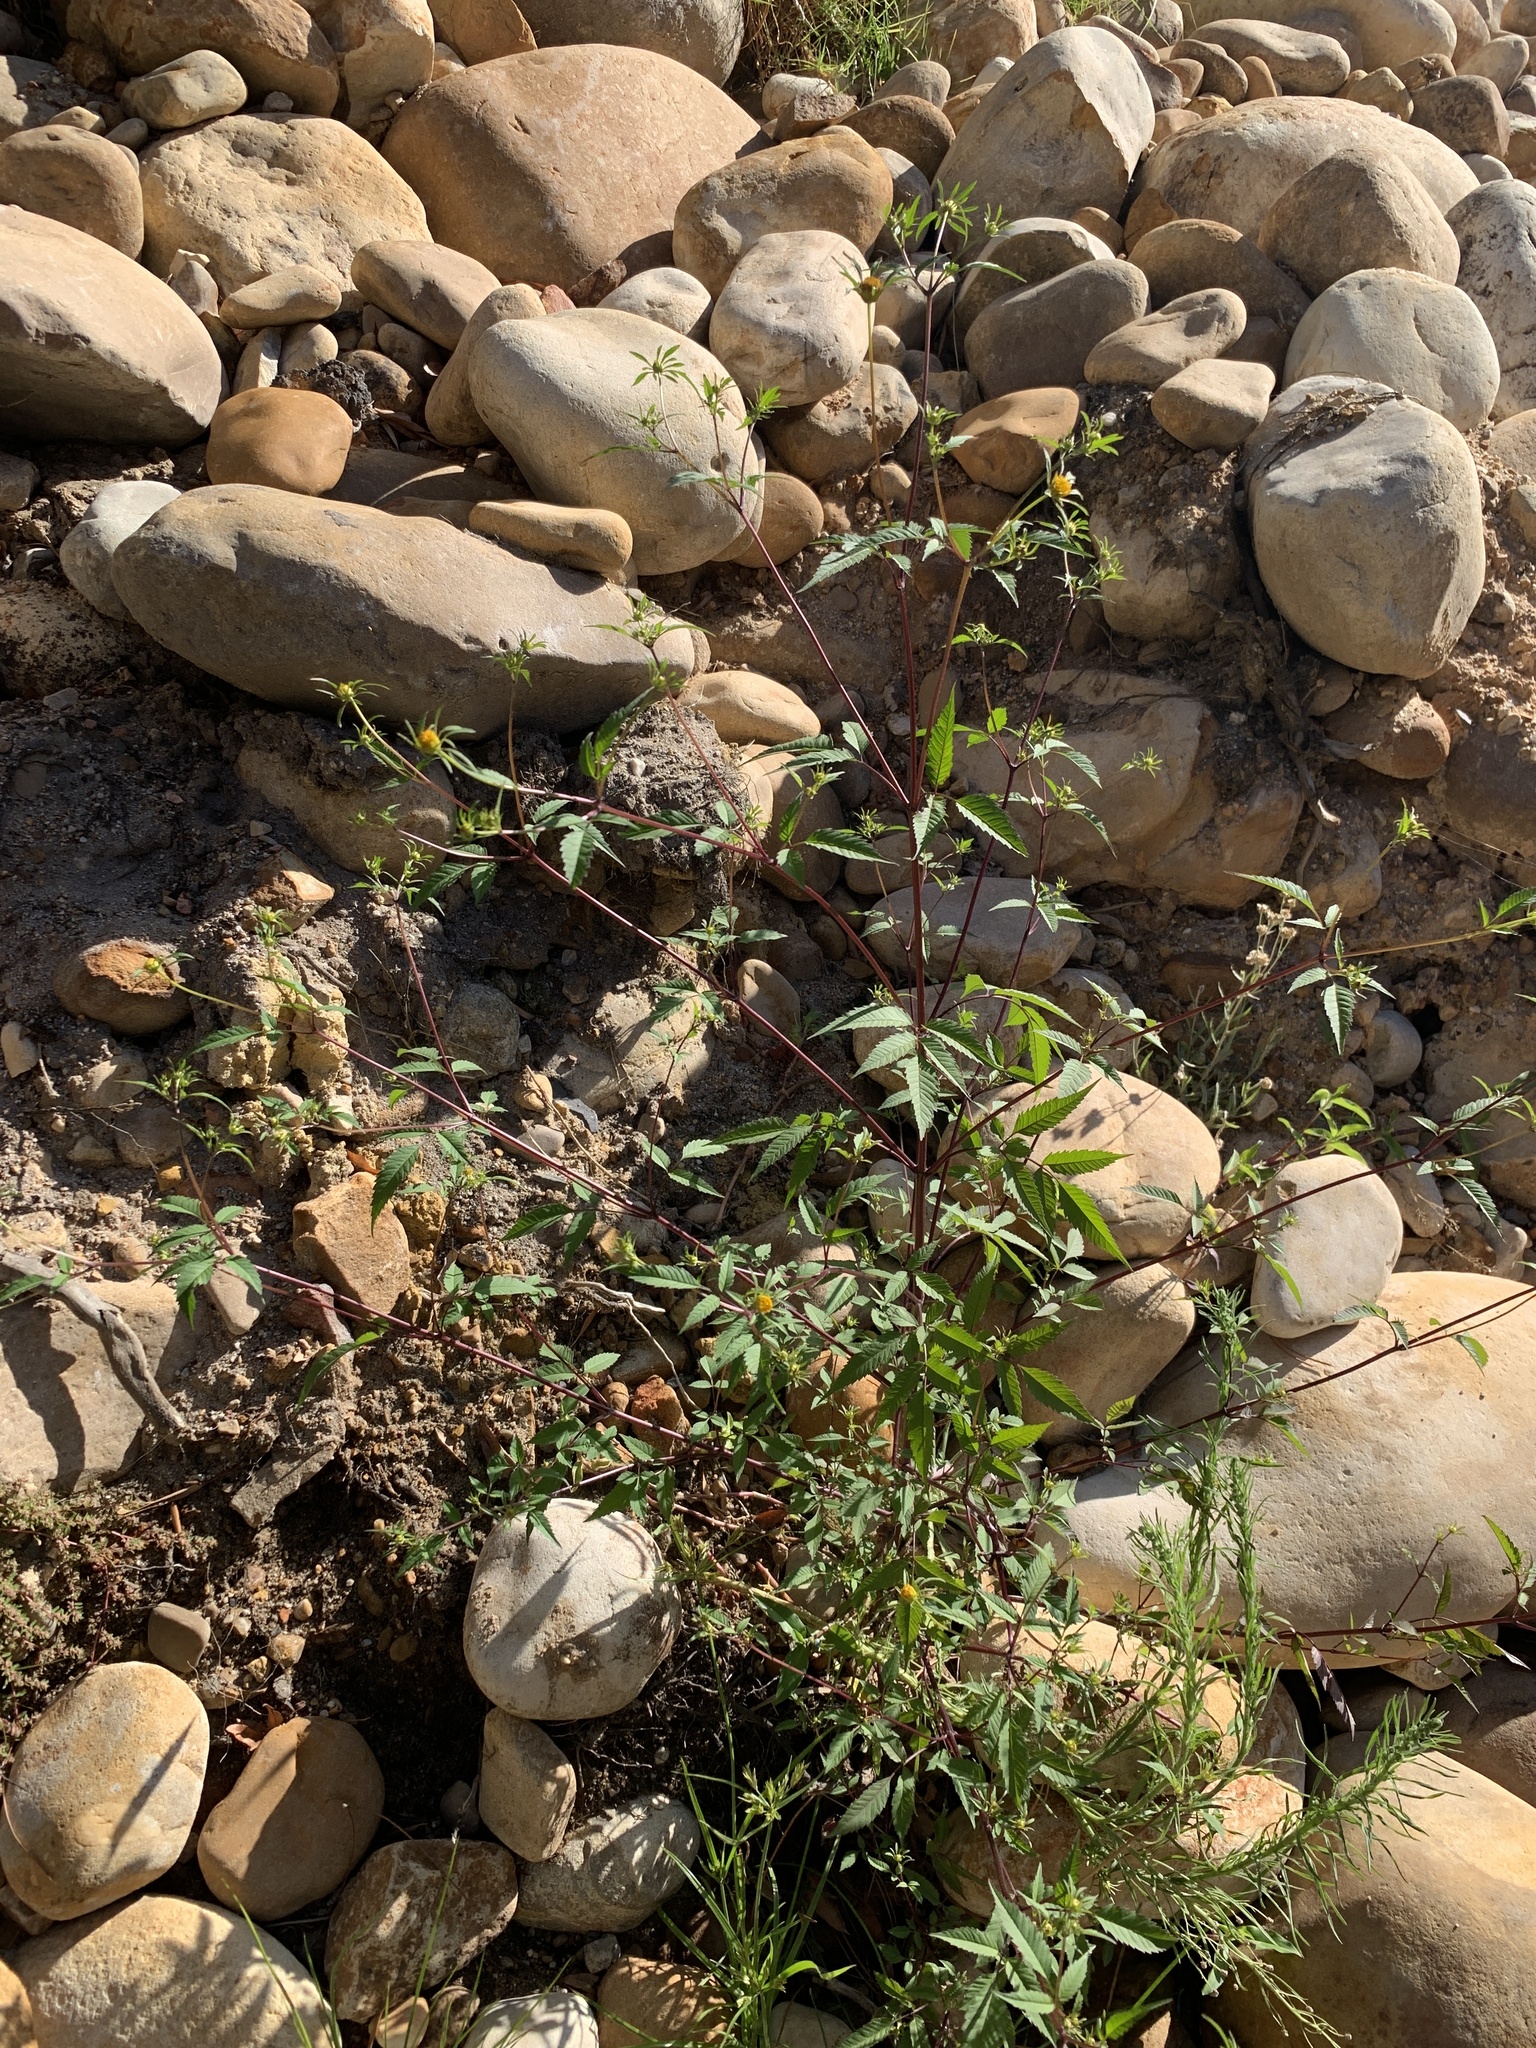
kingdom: Plantae
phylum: Tracheophyta
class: Magnoliopsida
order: Asterales
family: Asteraceae
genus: Bidens
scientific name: Bidens frondosa
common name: Beggarticks
